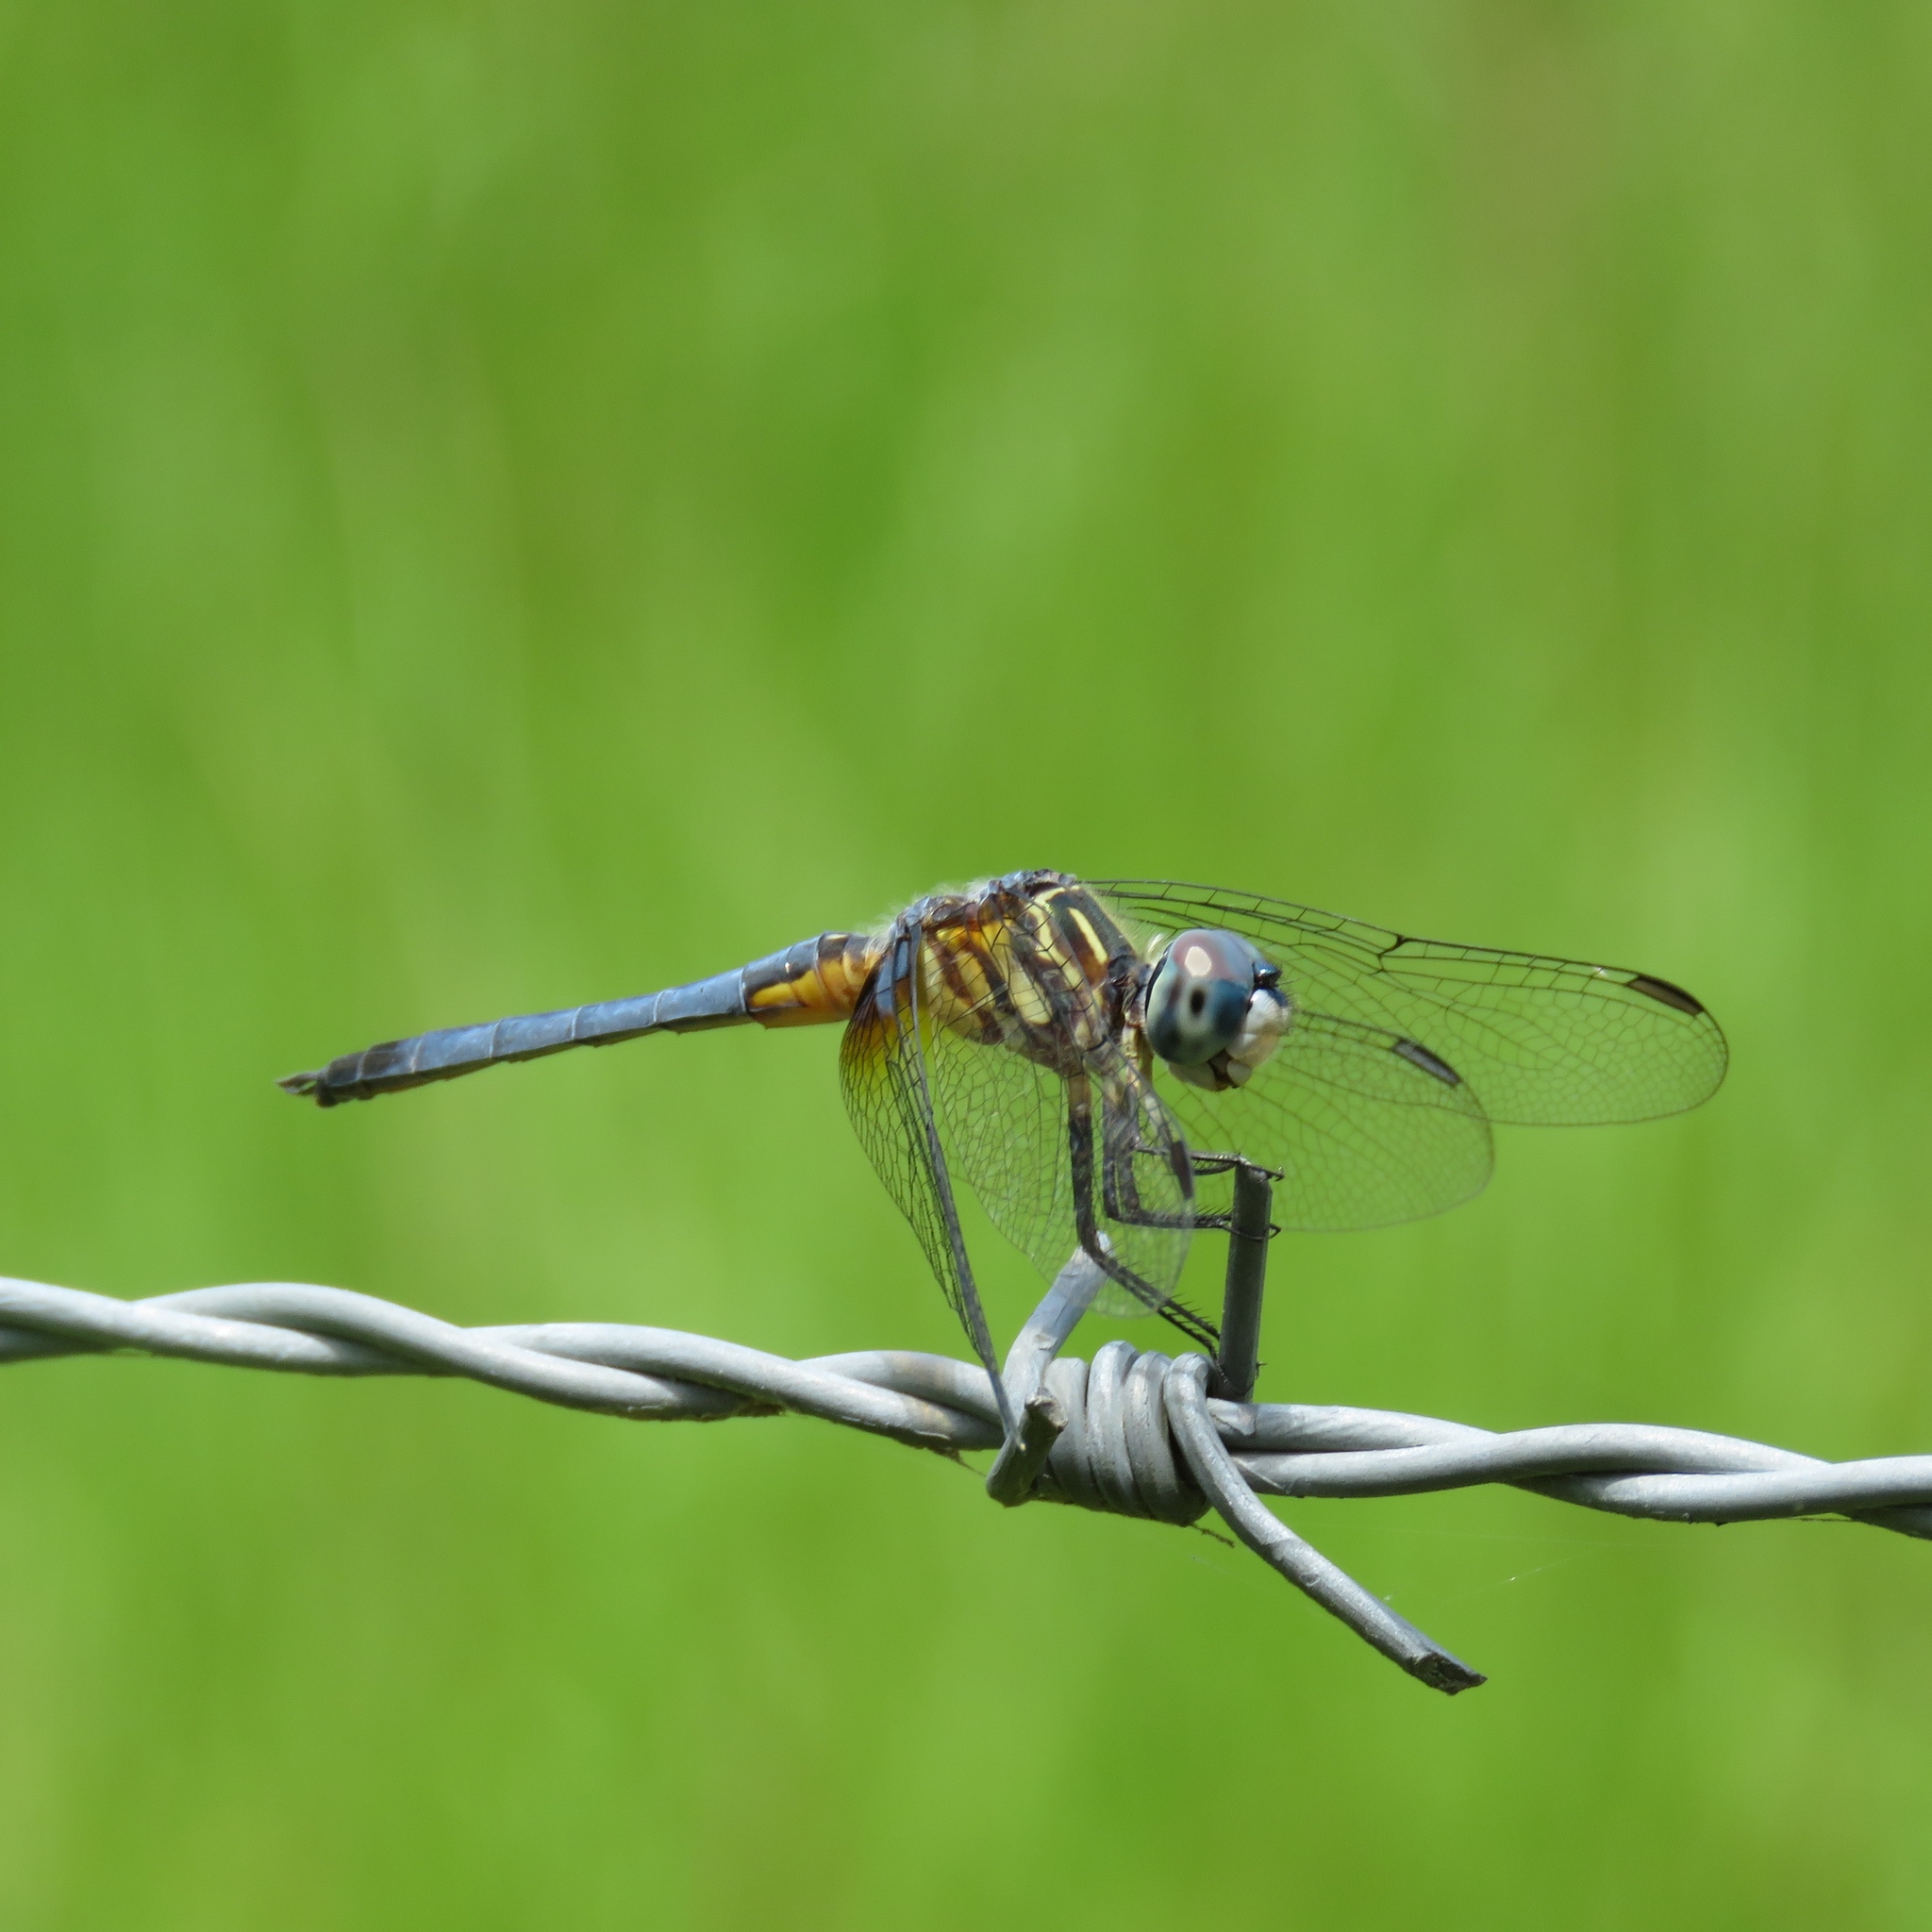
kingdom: Animalia
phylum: Arthropoda
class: Insecta
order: Odonata
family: Libellulidae
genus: Pachydiplax
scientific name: Pachydiplax longipennis
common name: Blue dasher
